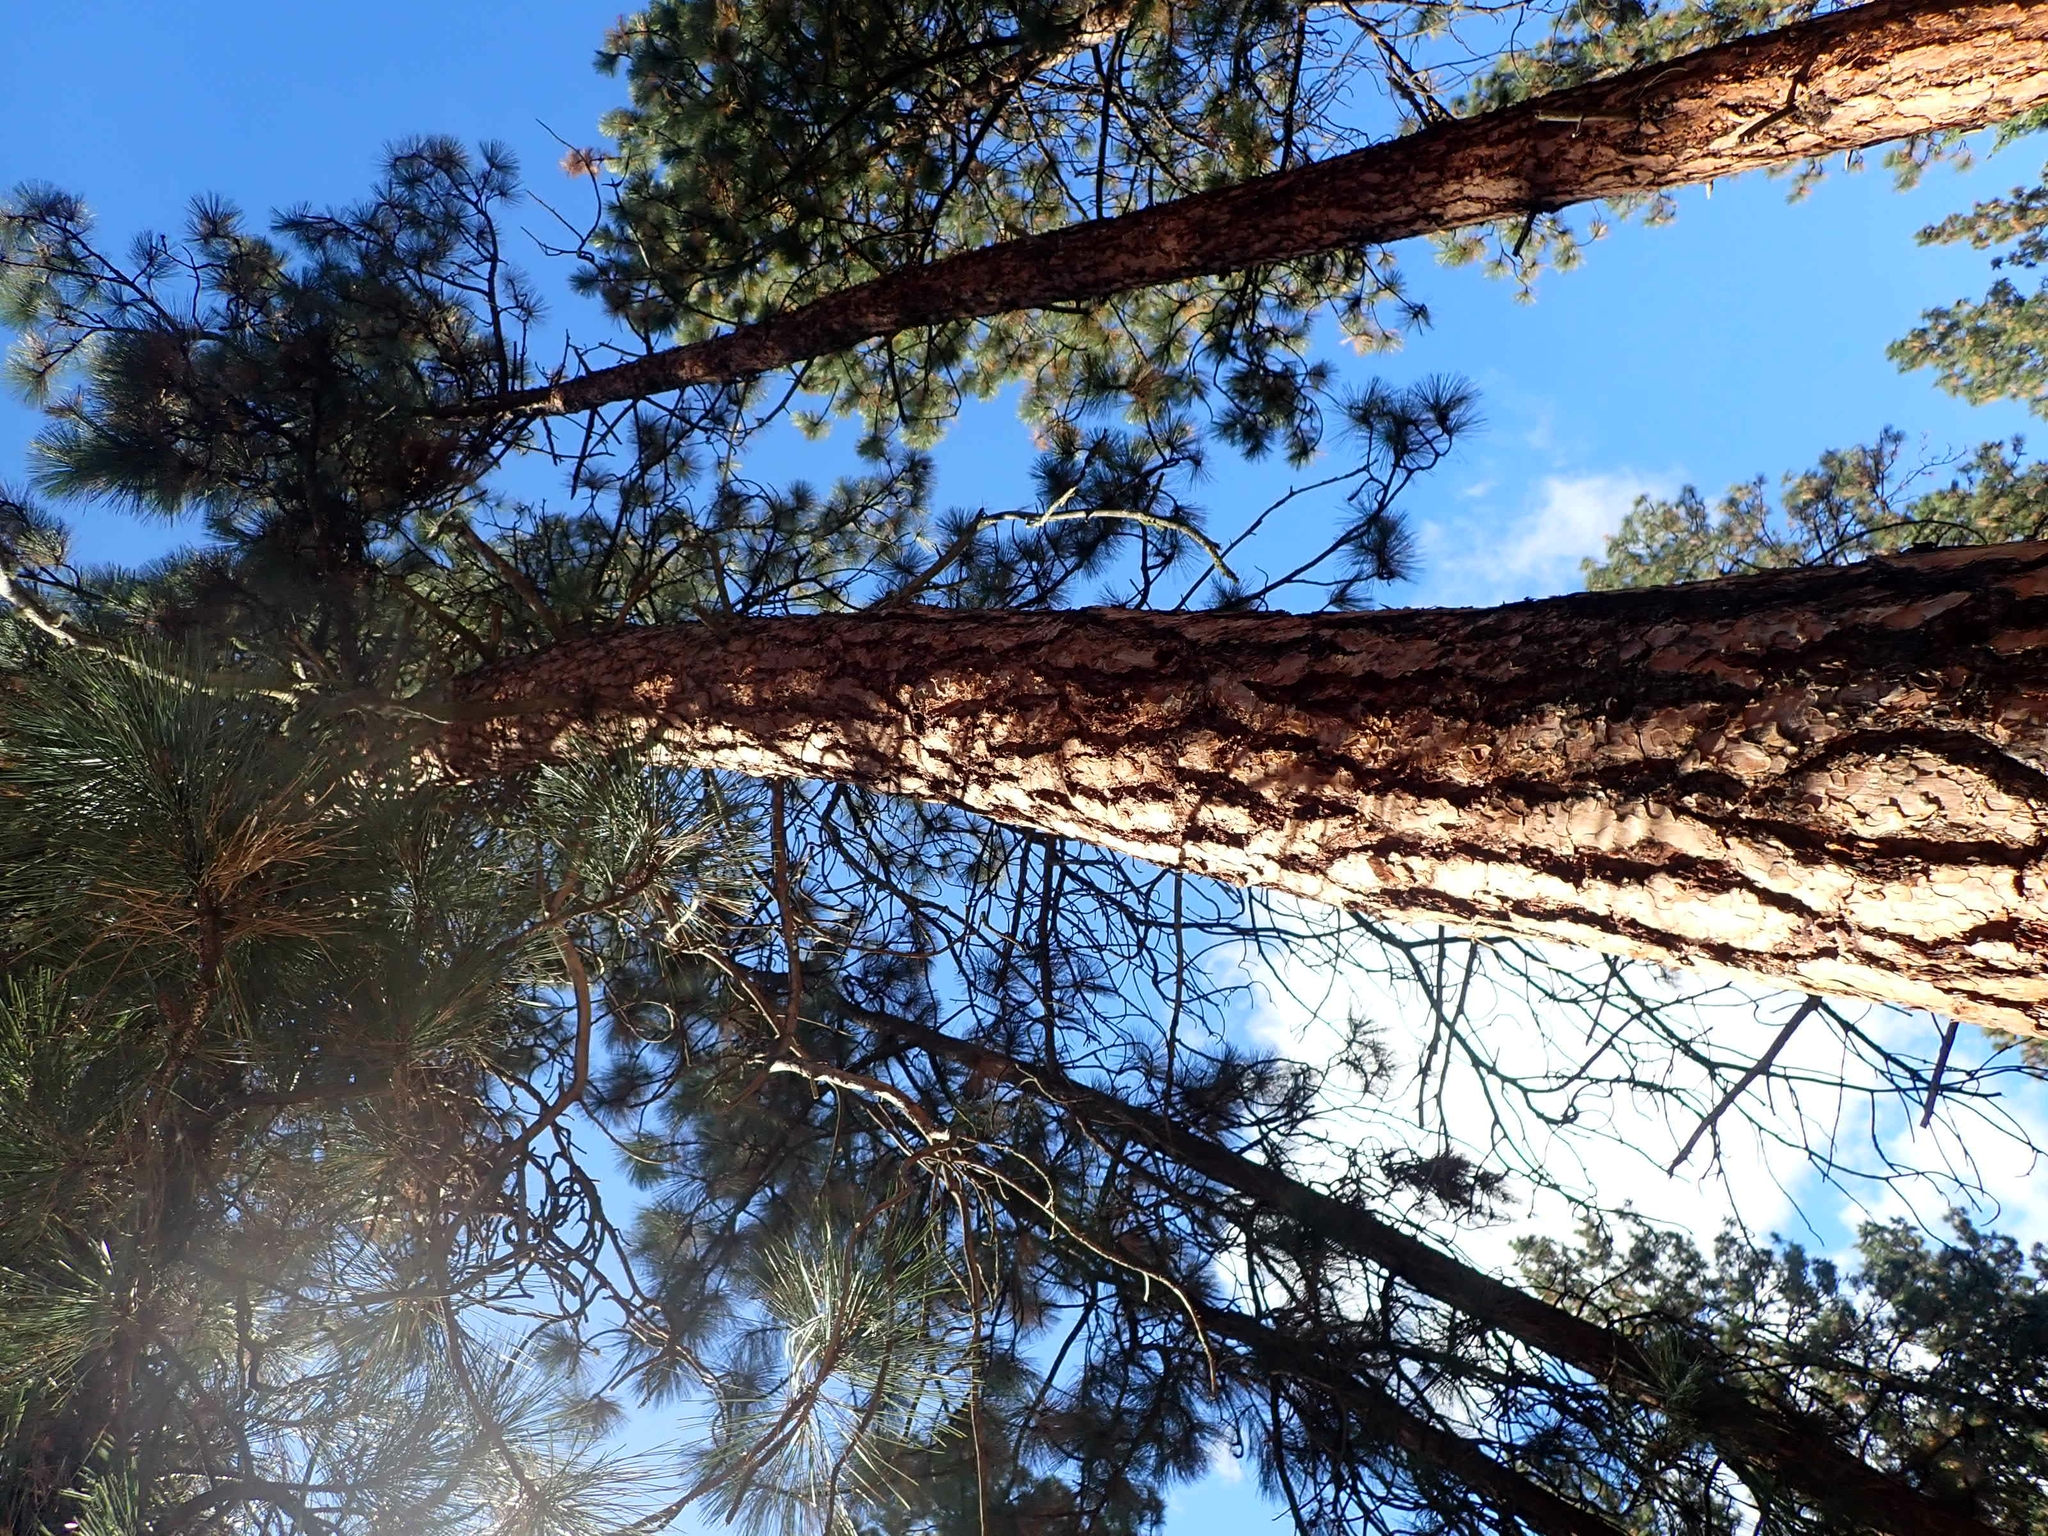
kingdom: Plantae
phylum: Tracheophyta
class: Pinopsida
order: Pinales
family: Pinaceae
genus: Pinus
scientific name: Pinus ponderosa
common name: Western yellow-pine
